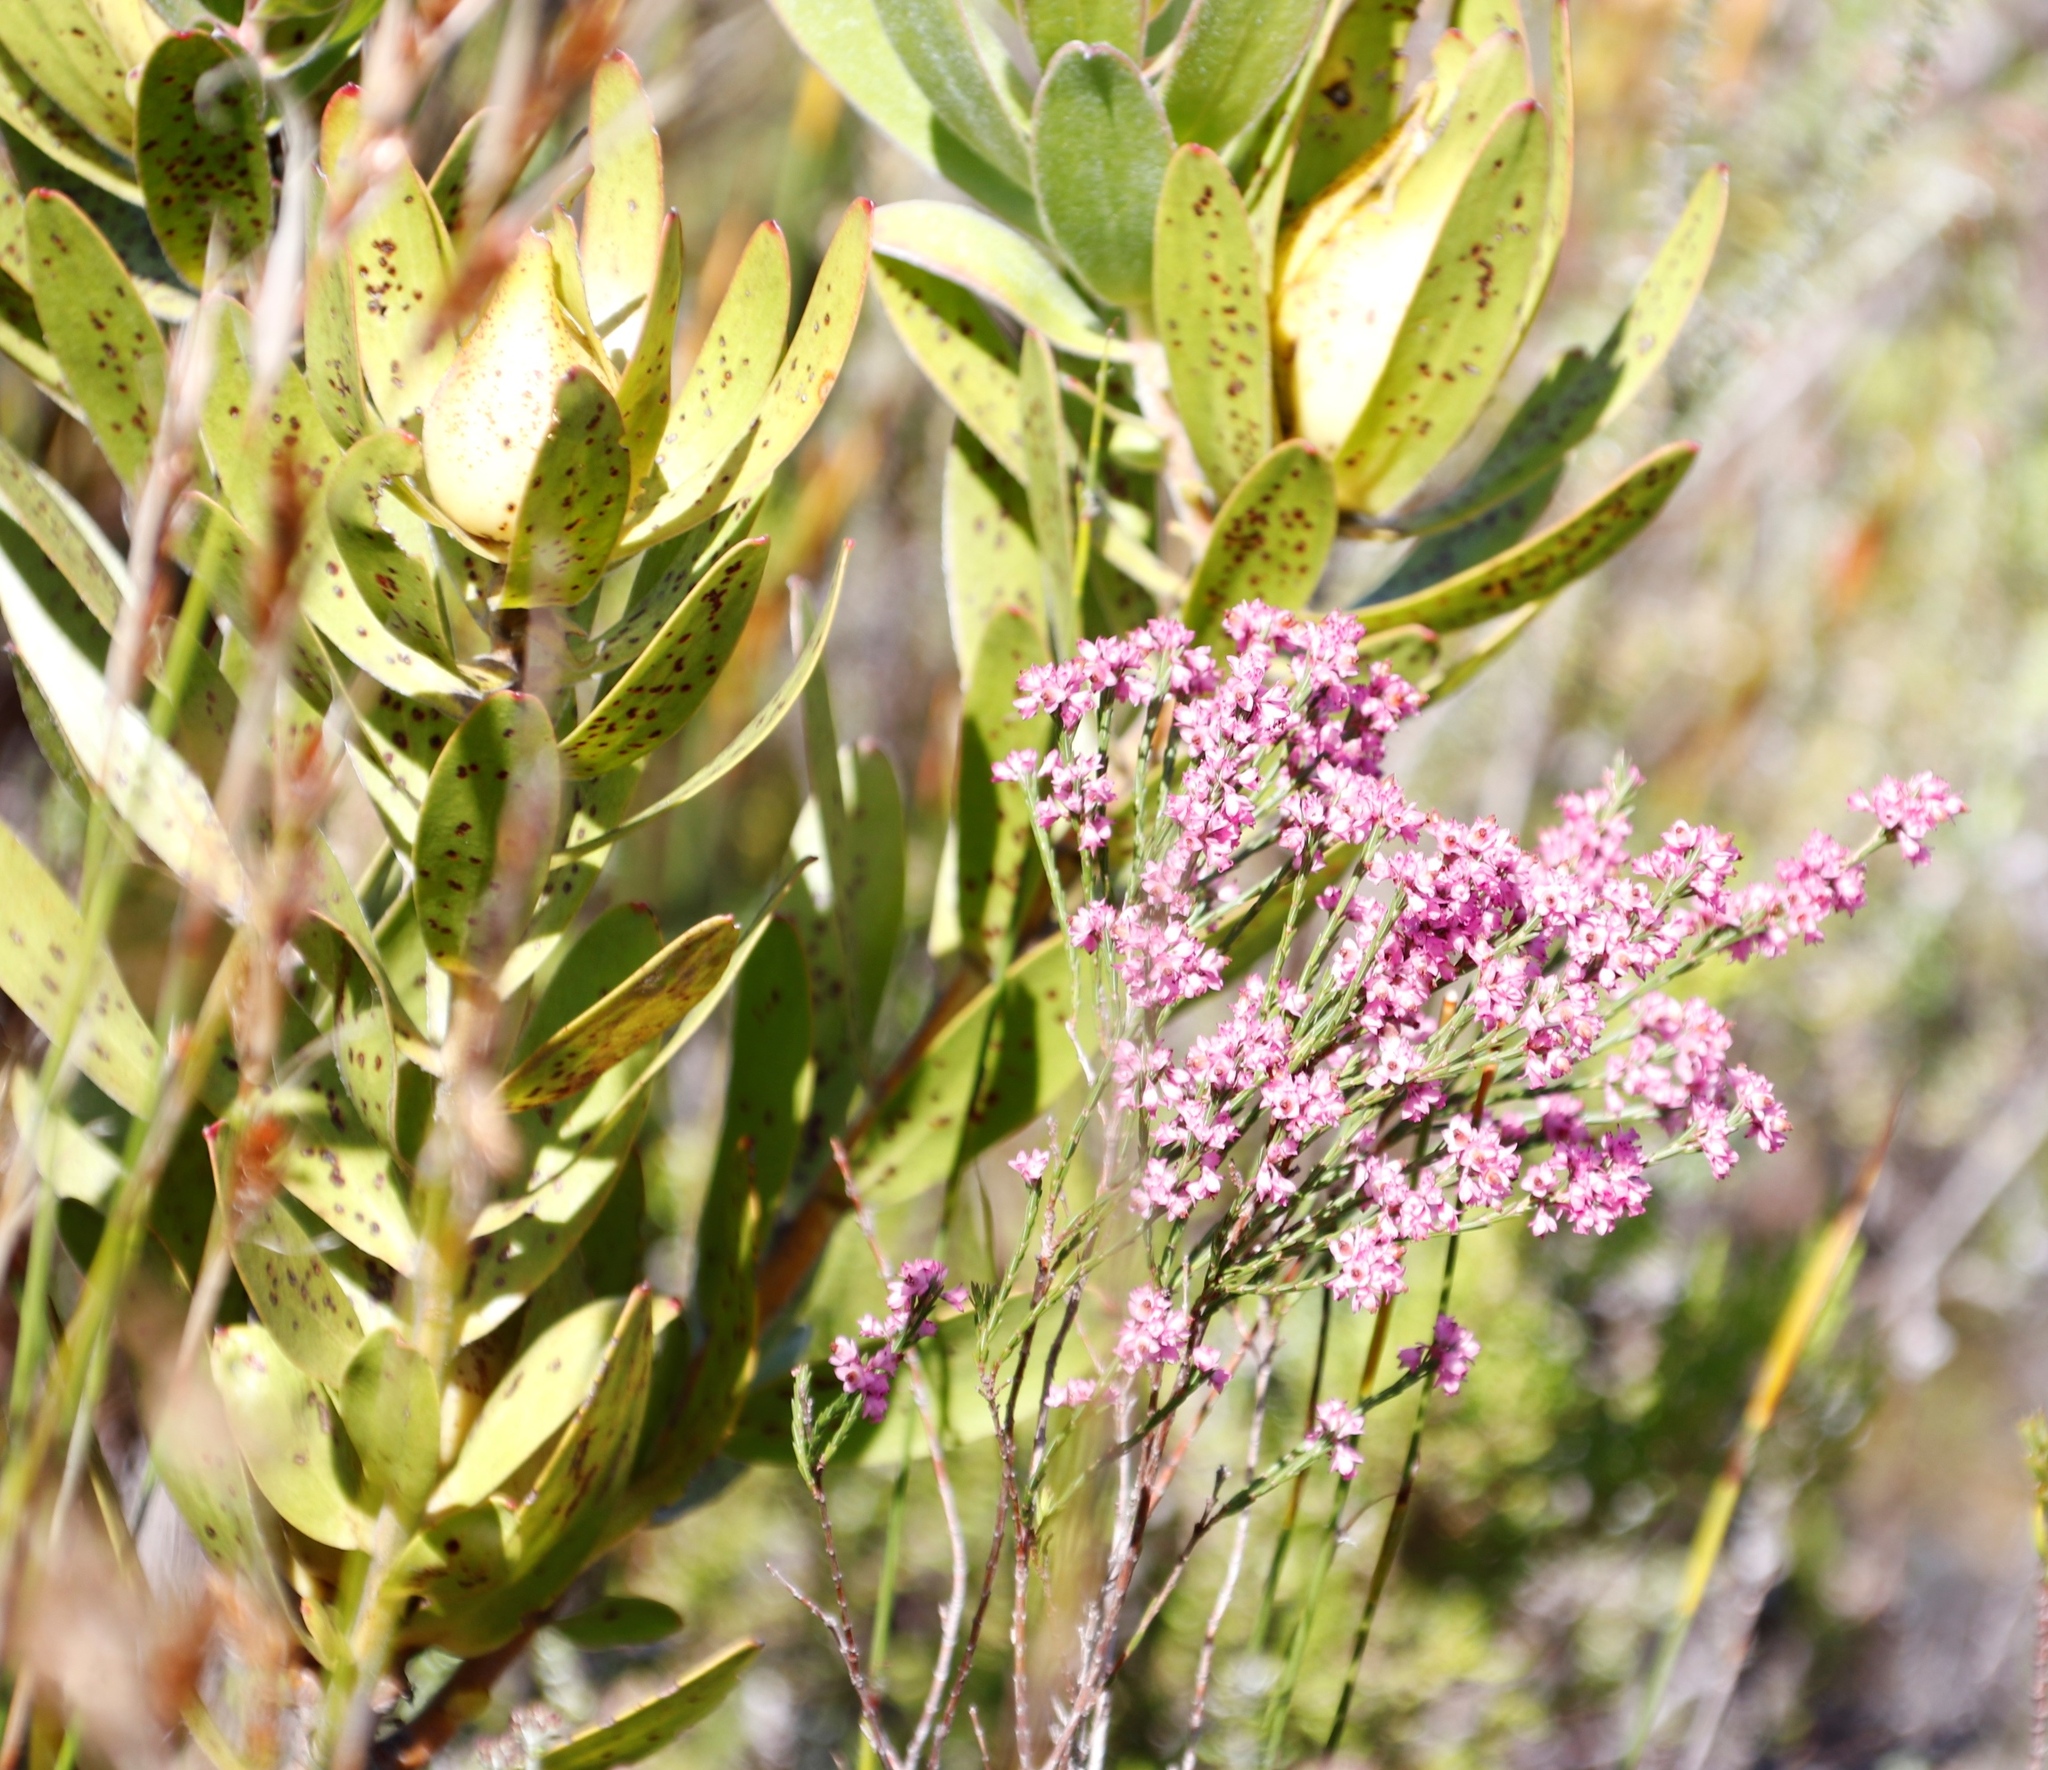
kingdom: Plantae
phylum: Tracheophyta
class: Magnoliopsida
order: Proteales
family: Proteaceae
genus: Leucadendron
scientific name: Leucadendron laureolum
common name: Golden sunshinebush
